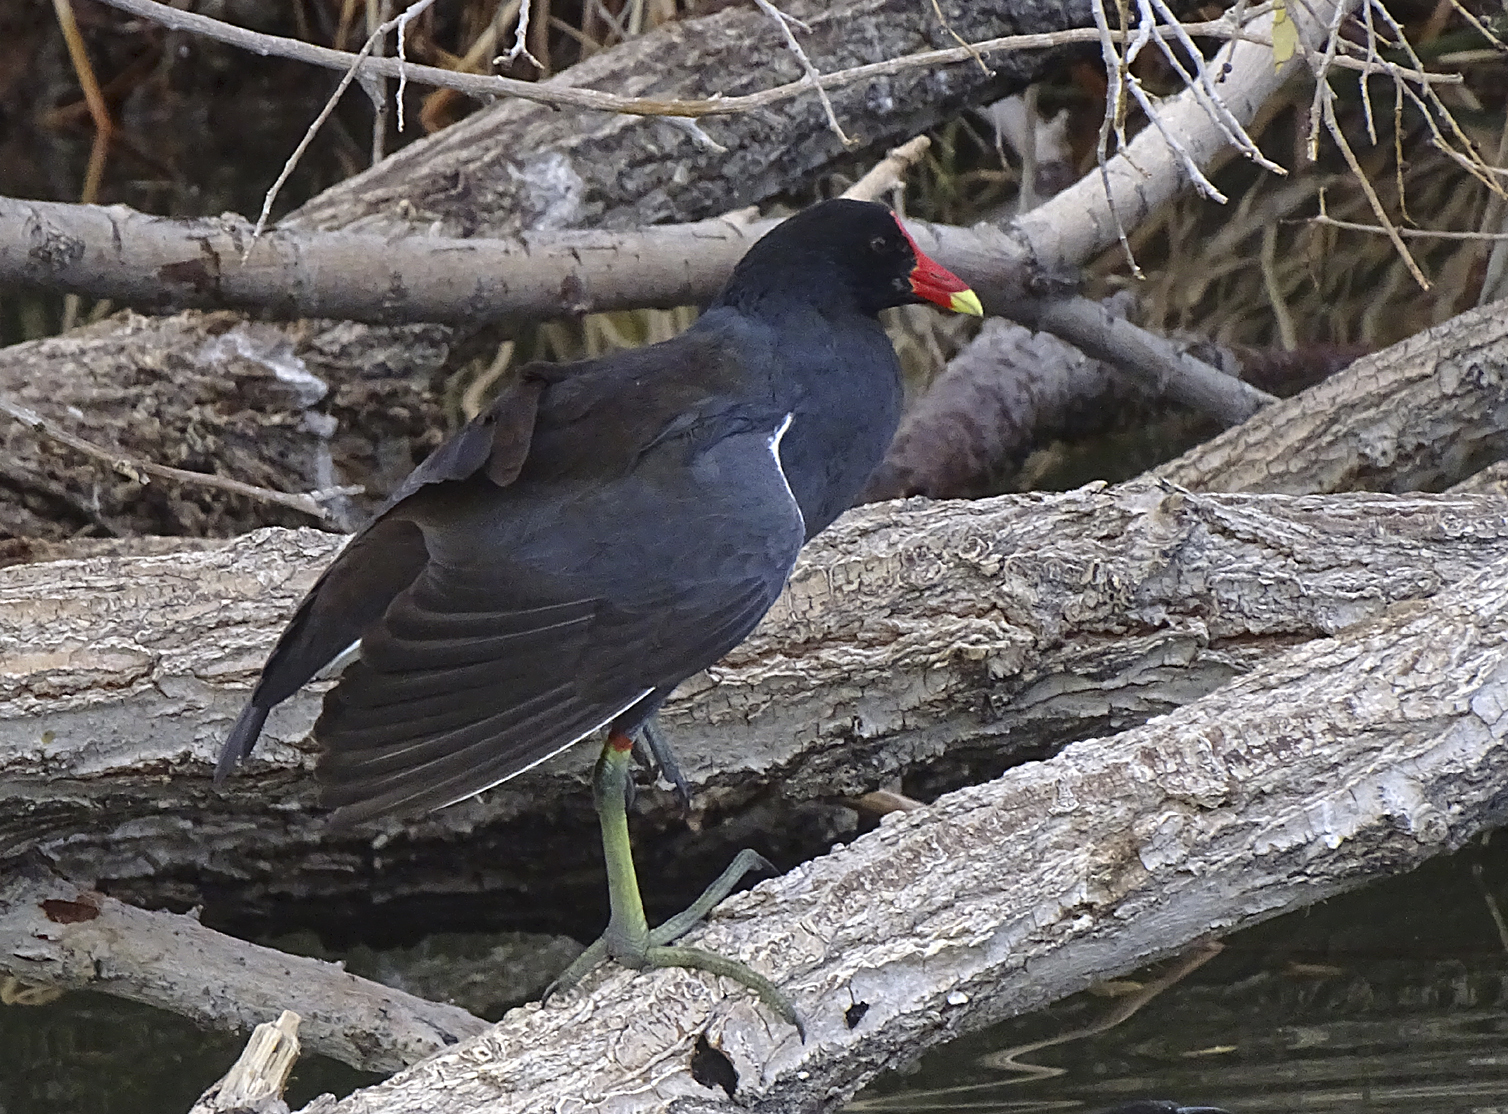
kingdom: Animalia
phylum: Chordata
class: Aves
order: Gruiformes
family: Rallidae
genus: Gallinula
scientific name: Gallinula chloropus
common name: Common moorhen
